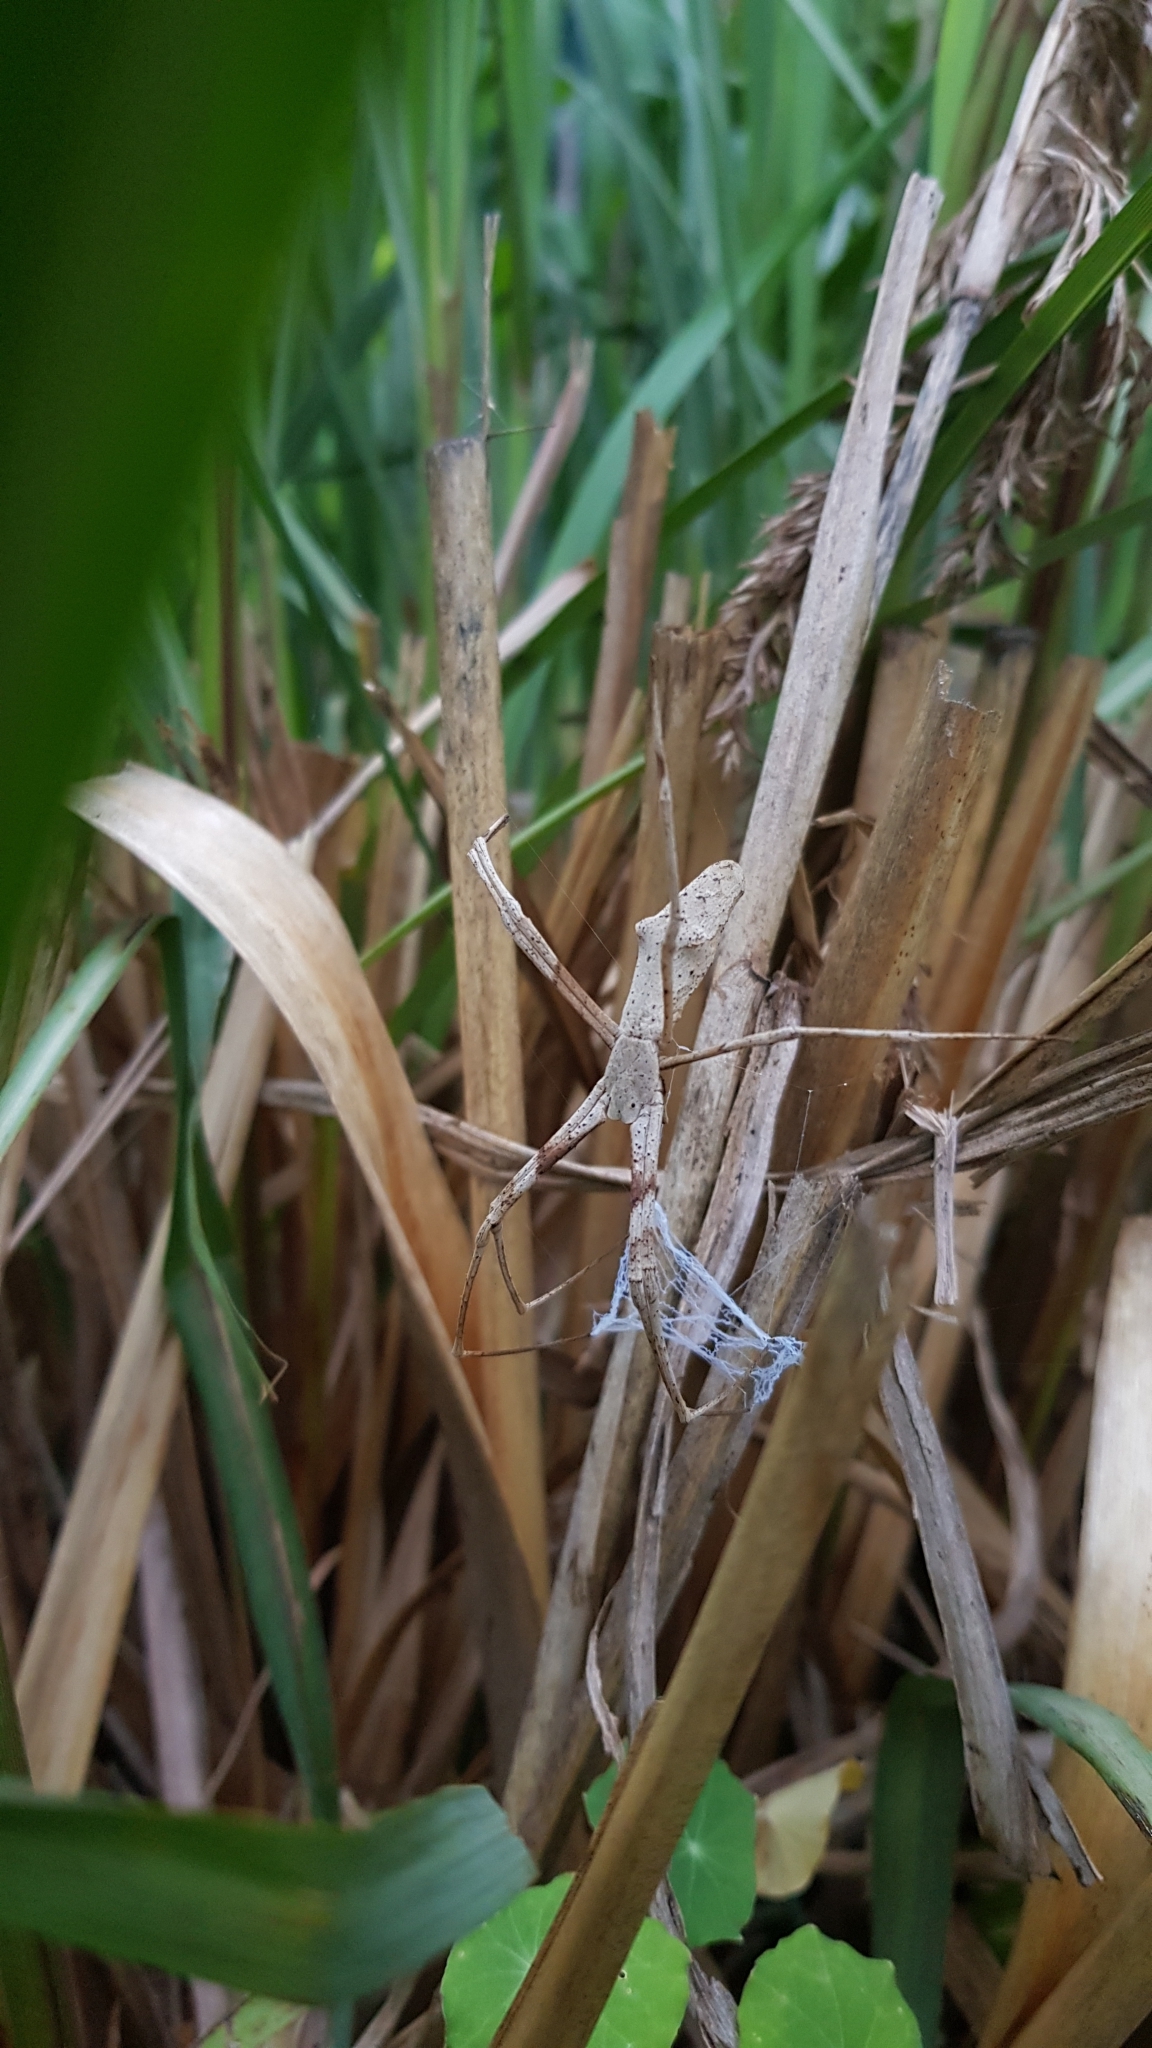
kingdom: Animalia
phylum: Arthropoda
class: Arachnida
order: Araneae
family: Deinopidae
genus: Deinopis
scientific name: Deinopis subrufa
